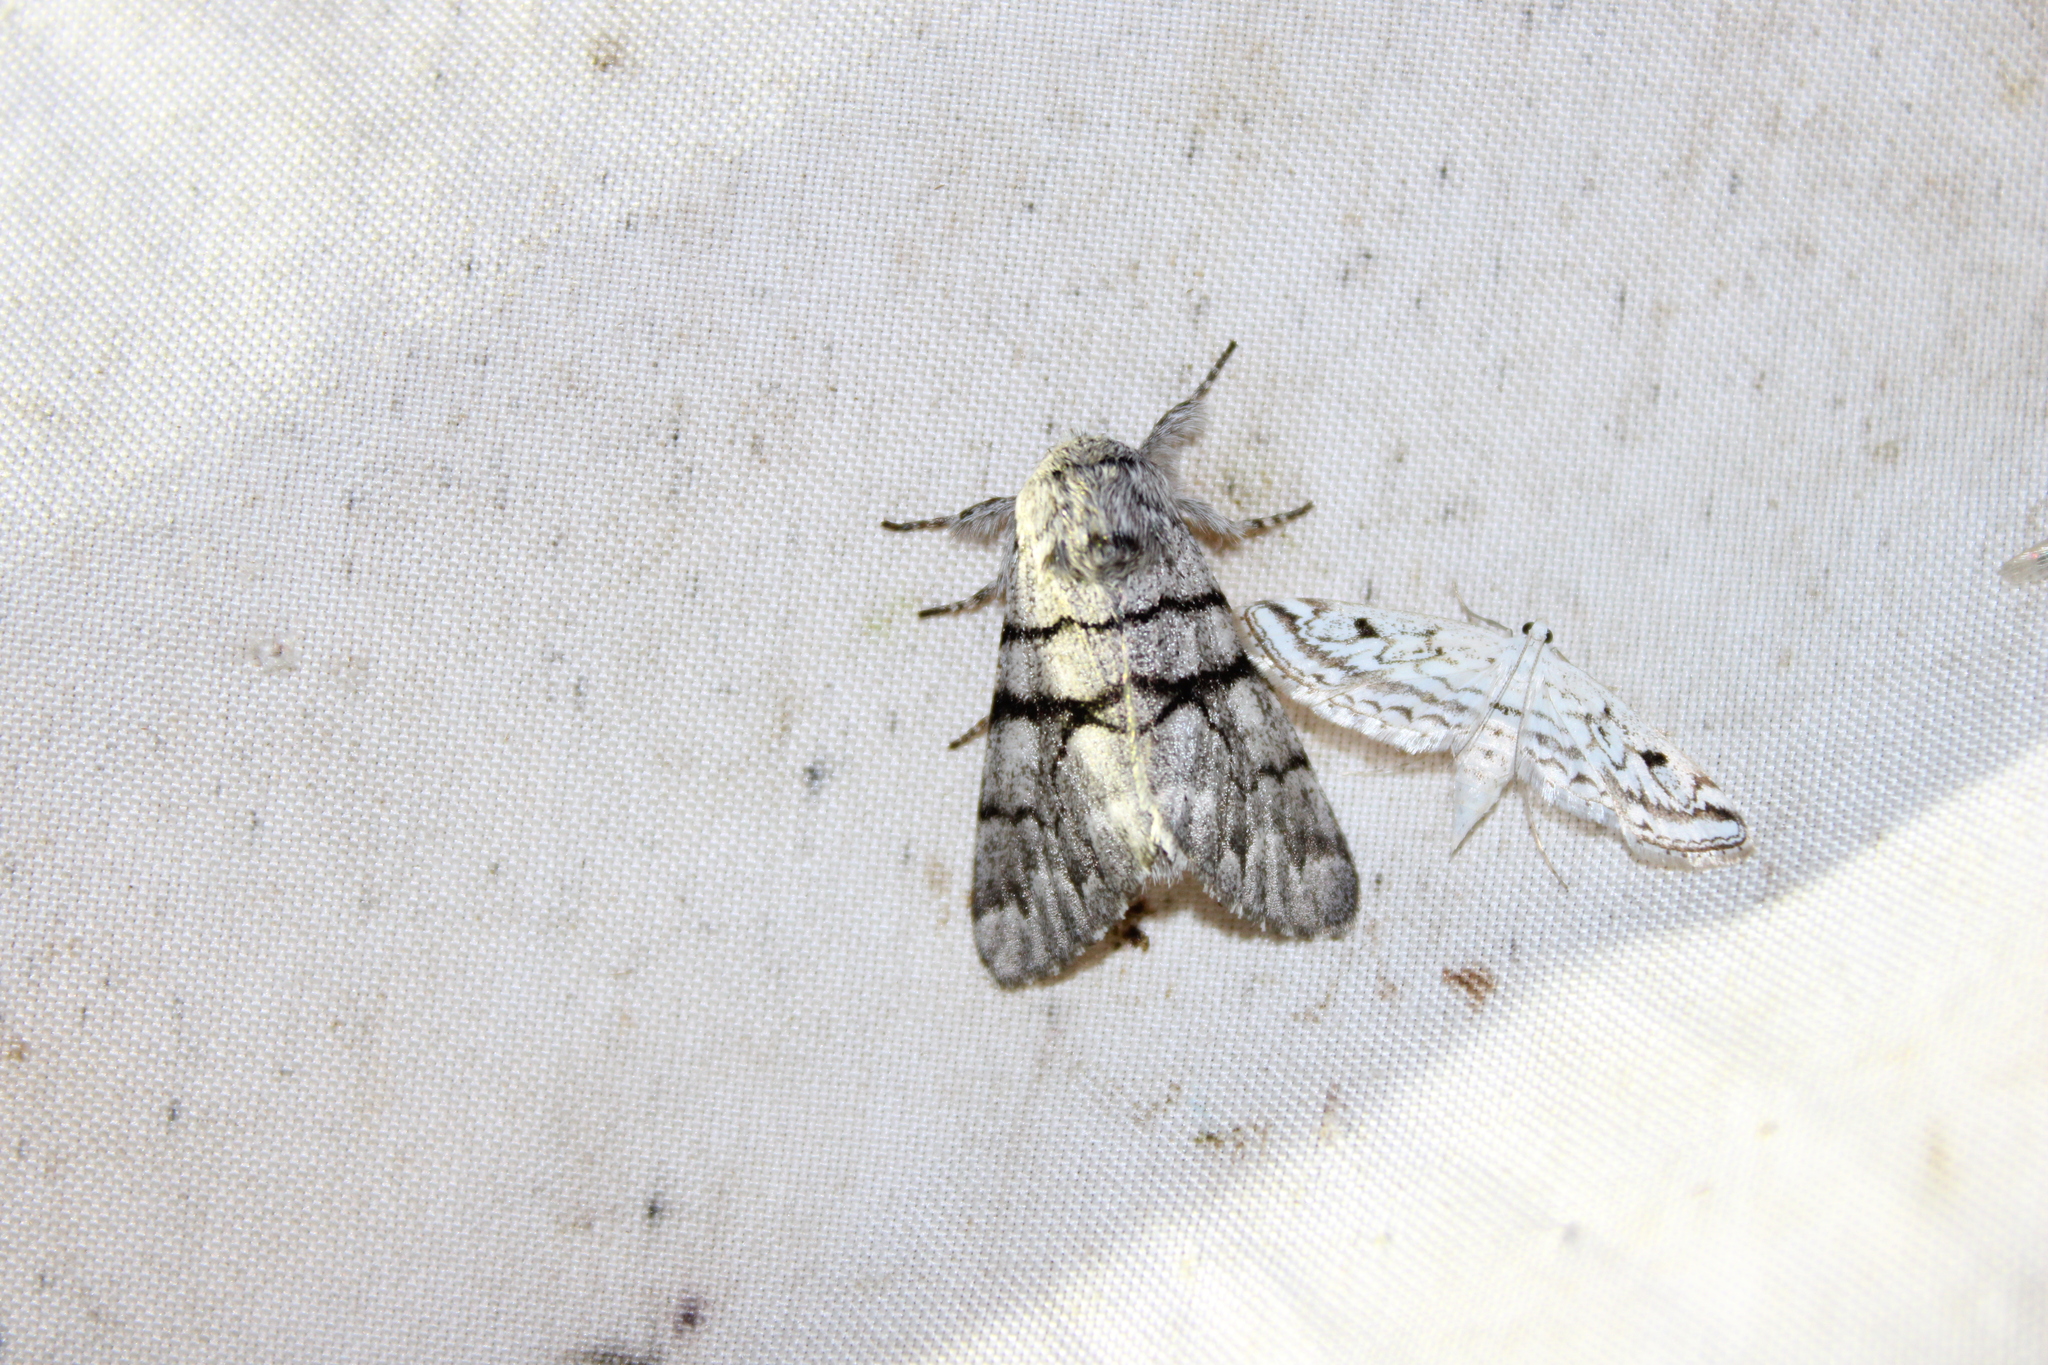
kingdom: Animalia
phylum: Arthropoda
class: Insecta
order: Lepidoptera
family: Noctuidae
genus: Panthea
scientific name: Panthea furcilla
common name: Eastern panthea moth
